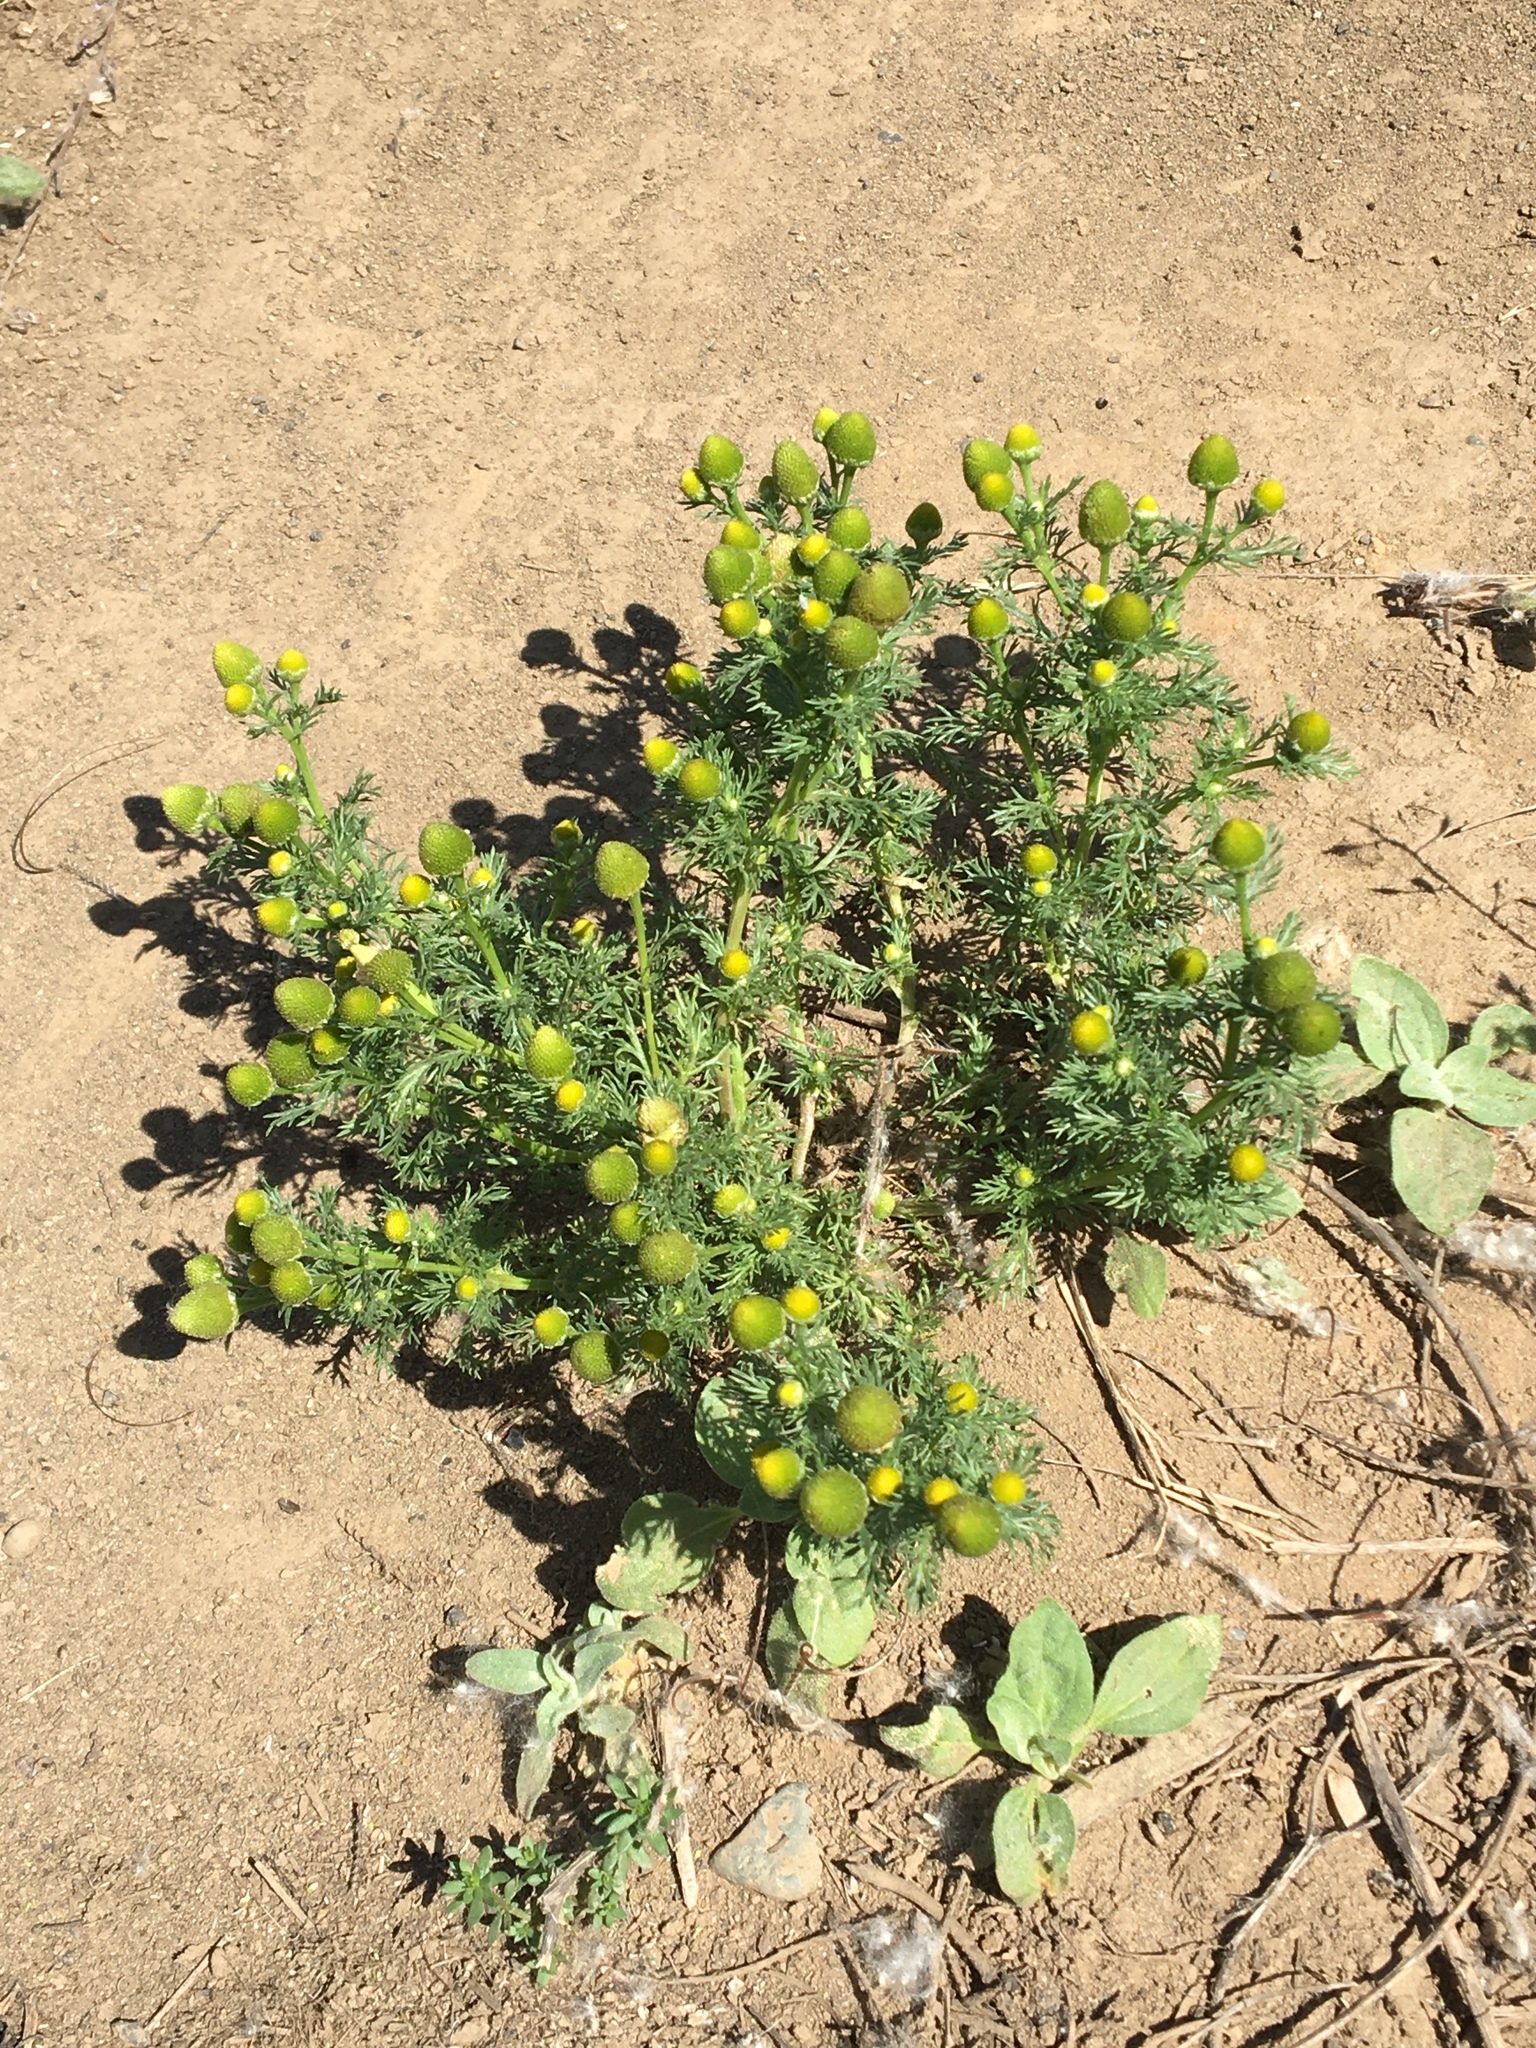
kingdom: Plantae
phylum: Tracheophyta
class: Magnoliopsida
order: Asterales
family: Asteraceae
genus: Matricaria
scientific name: Matricaria discoidea
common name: Disc mayweed
